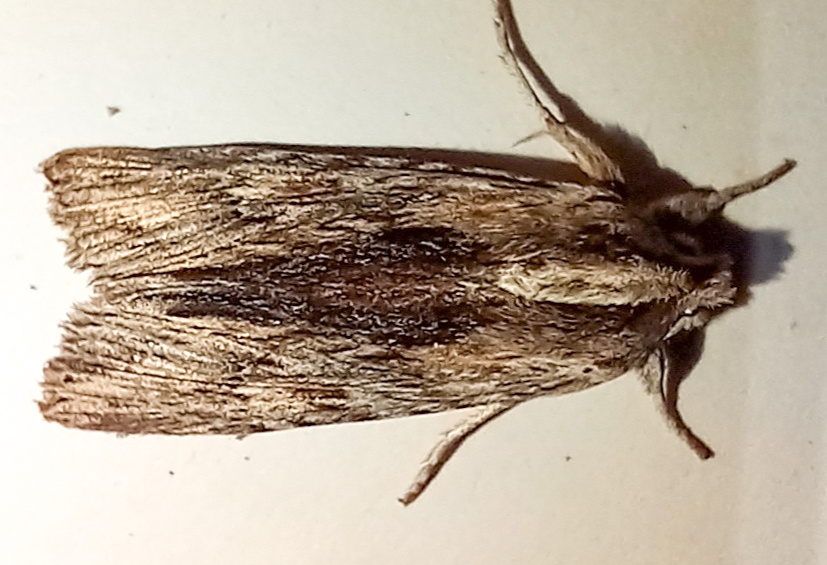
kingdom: Animalia
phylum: Arthropoda
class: Insecta
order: Lepidoptera
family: Noctuidae
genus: Physetica
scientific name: Physetica prionistis
